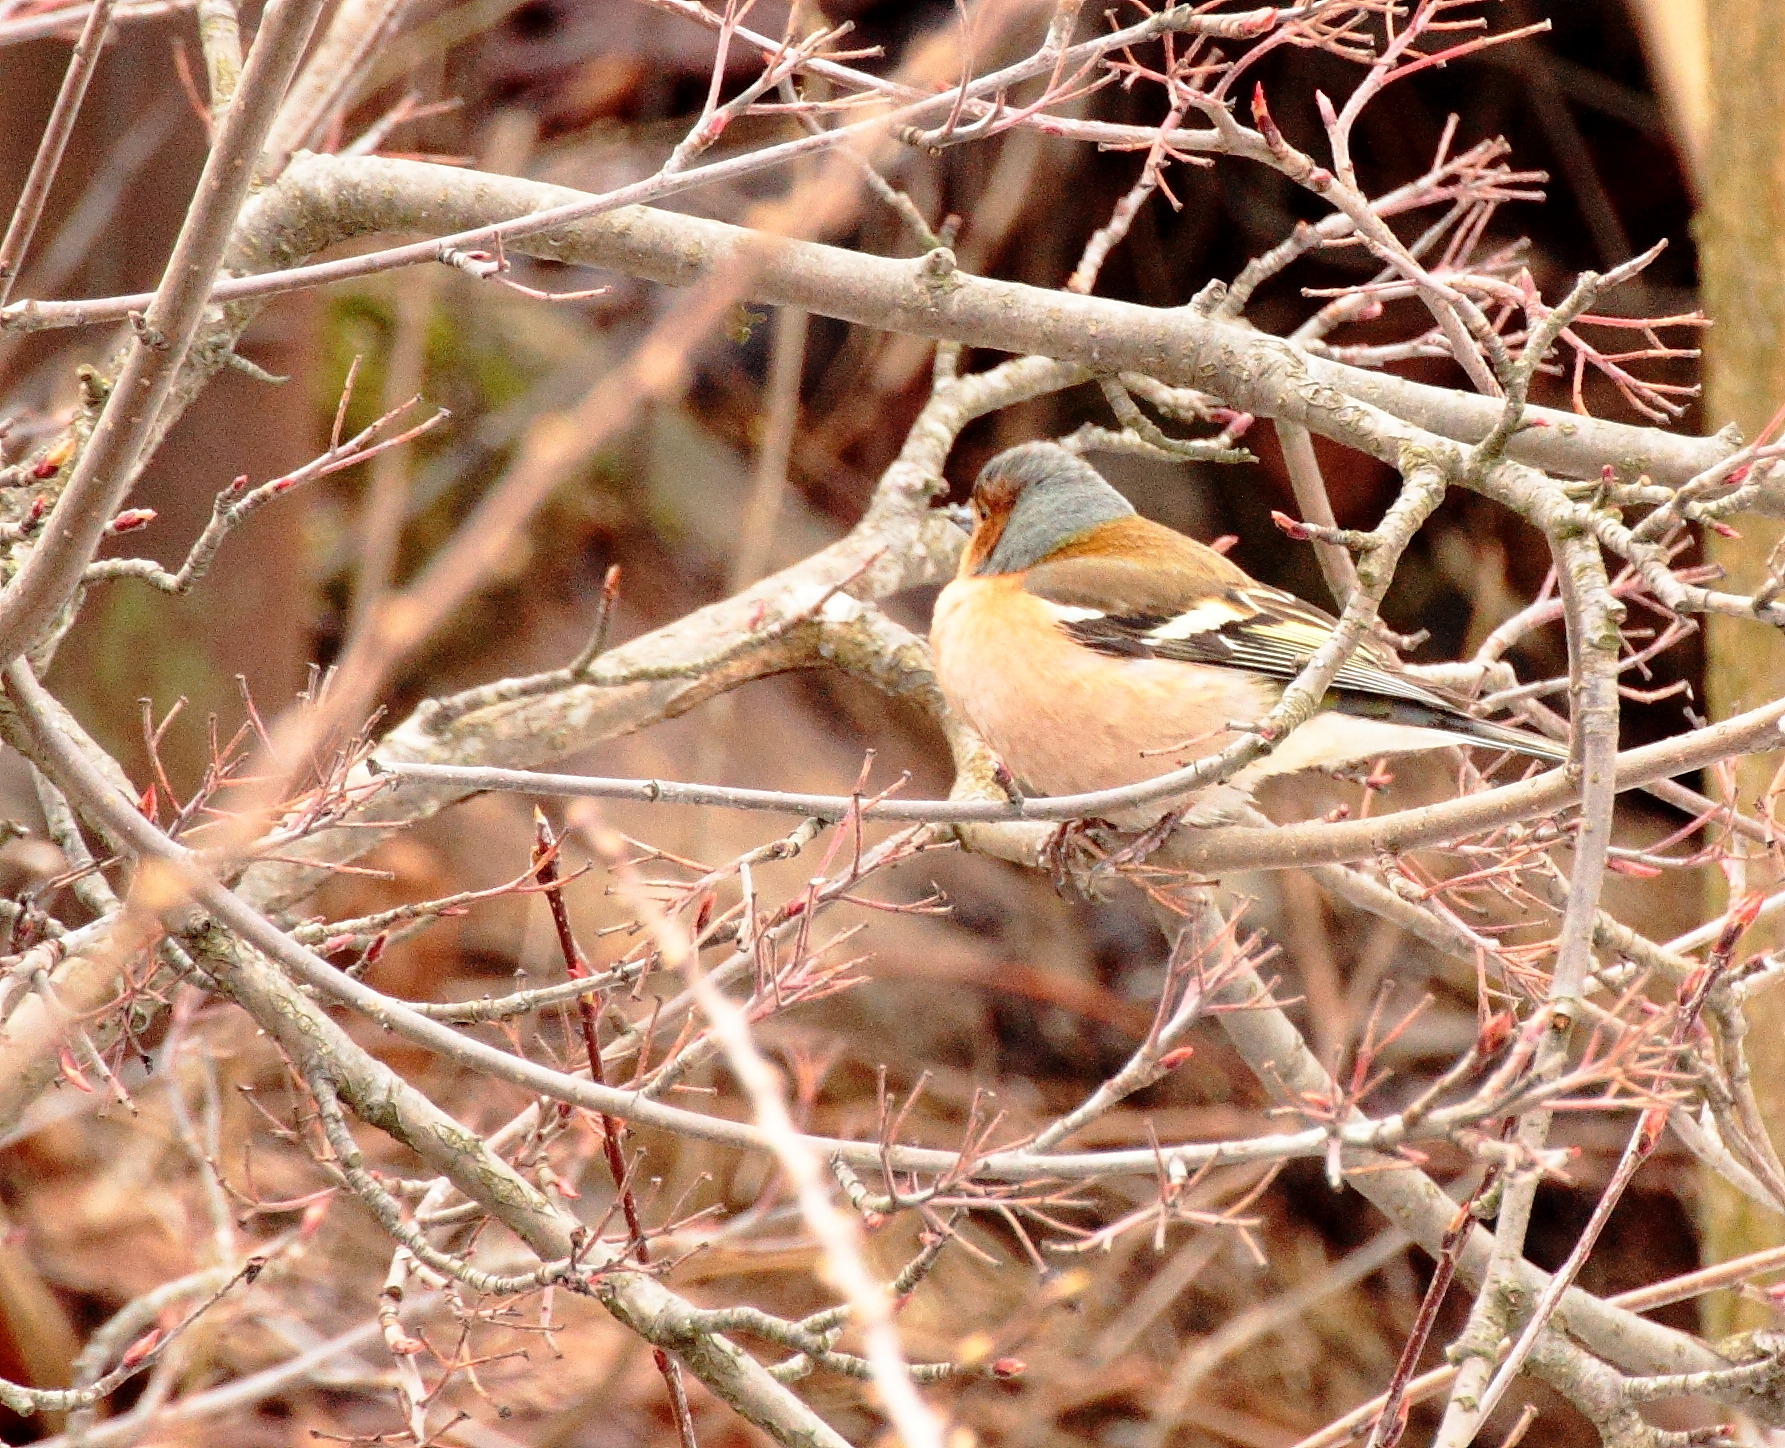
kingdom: Animalia
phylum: Chordata
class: Aves
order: Passeriformes
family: Fringillidae
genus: Fringilla
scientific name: Fringilla coelebs
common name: Common chaffinch
